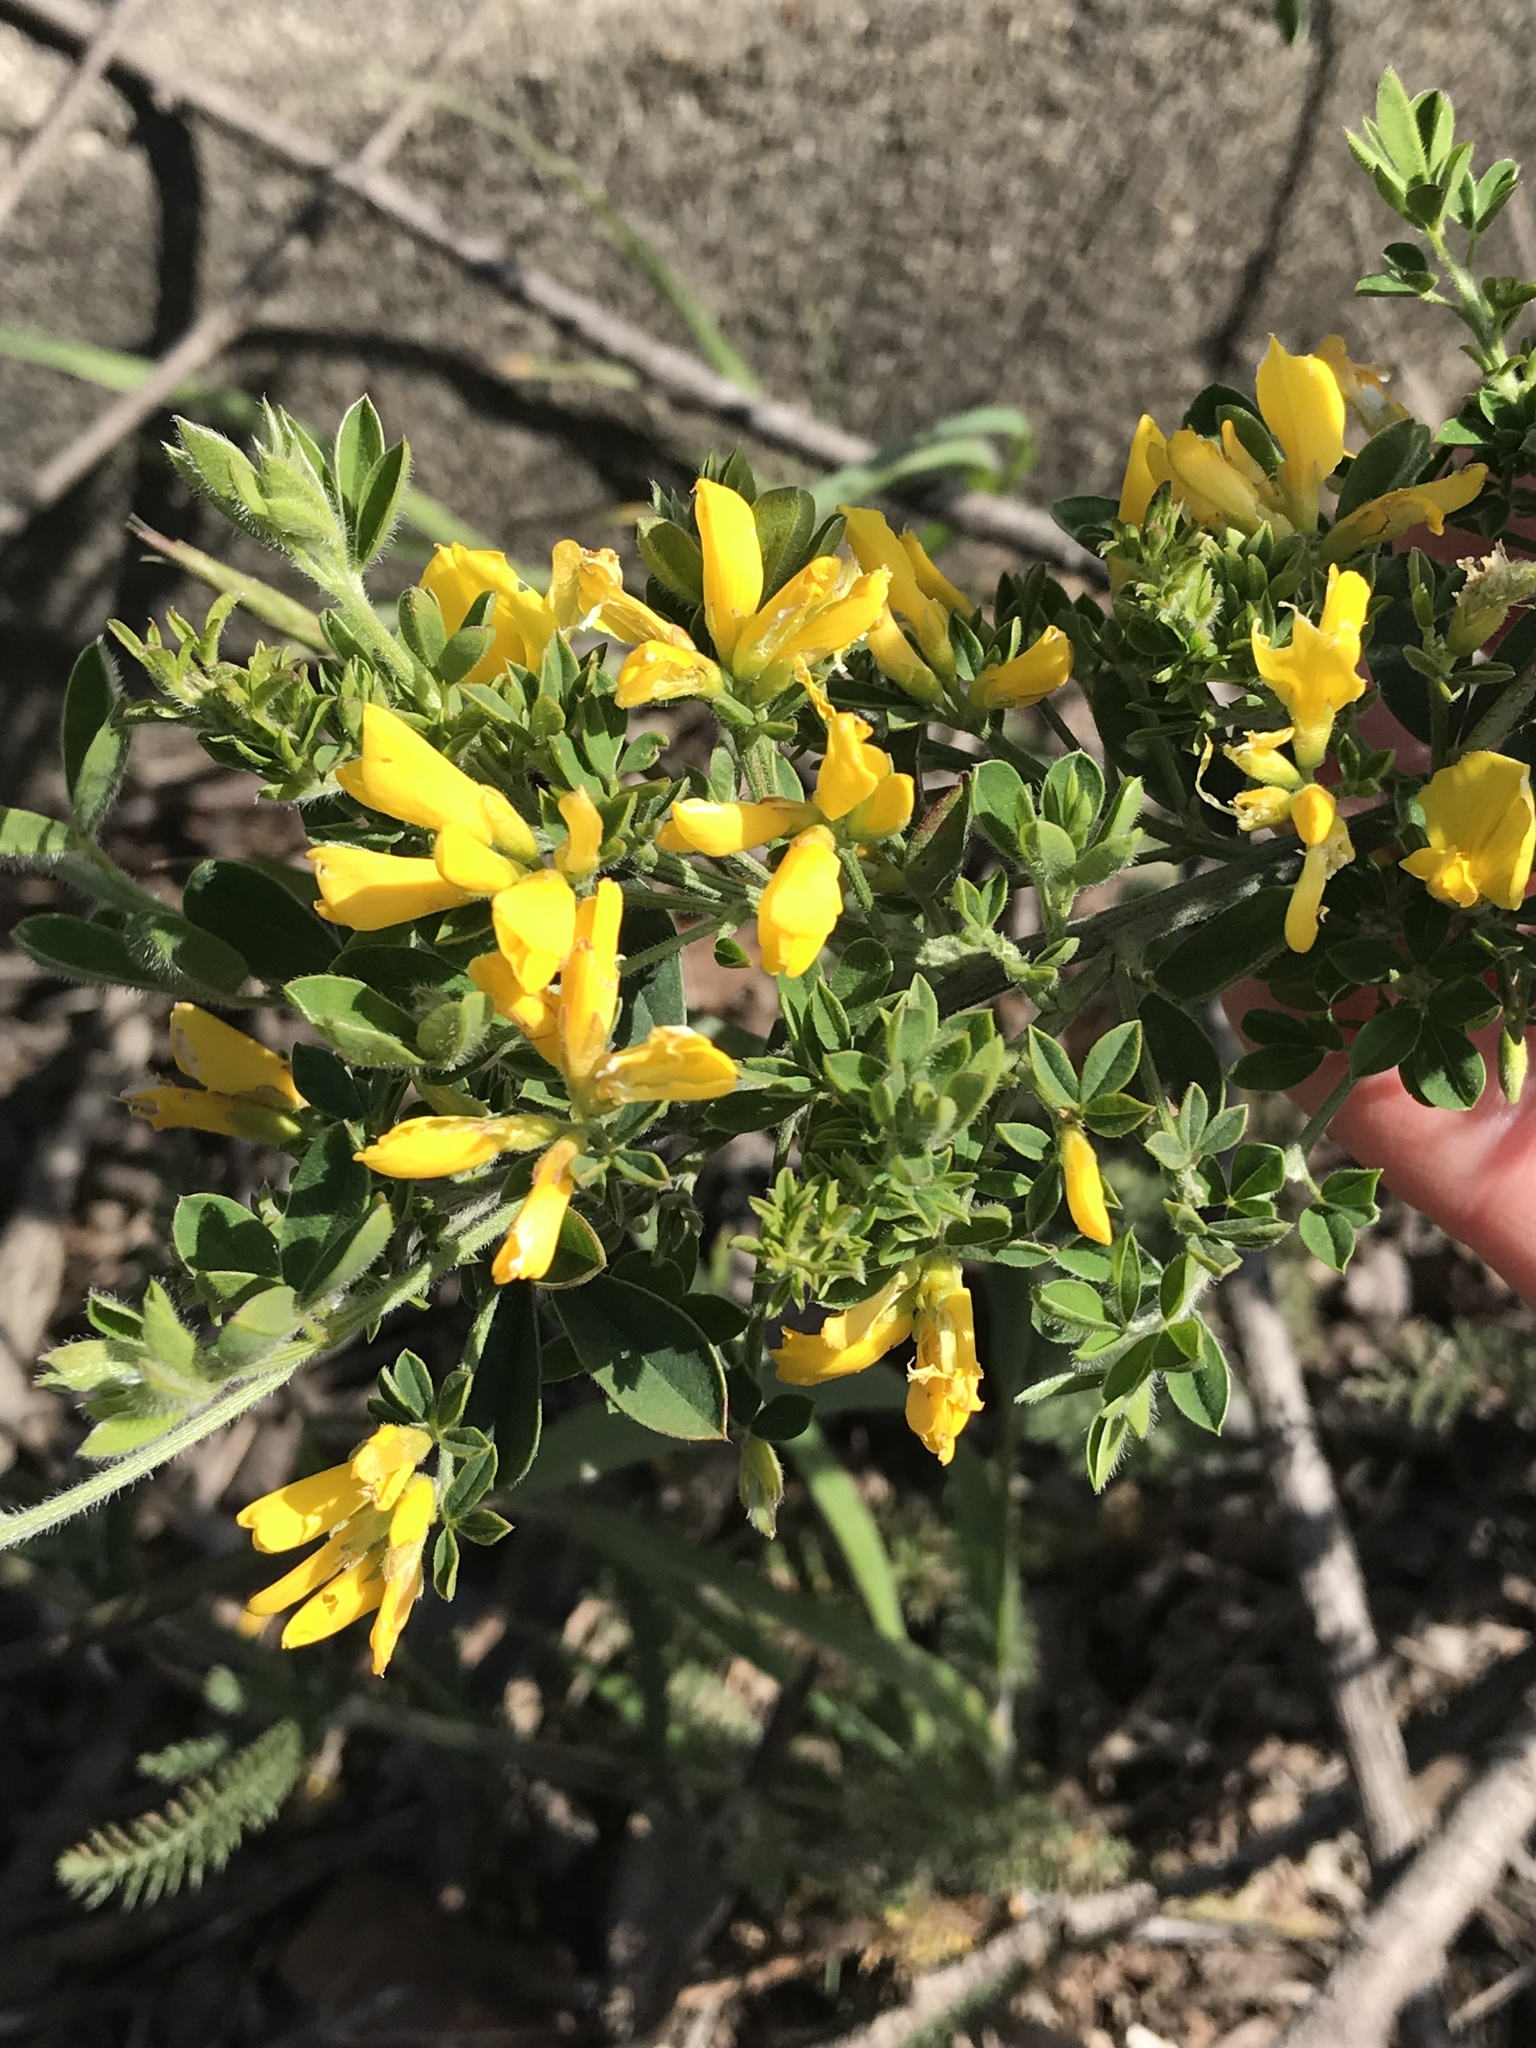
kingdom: Plantae
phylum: Tracheophyta
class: Magnoliopsida
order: Fabales
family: Fabaceae
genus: Genista
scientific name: Genista monspessulana
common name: Montpellier broom
